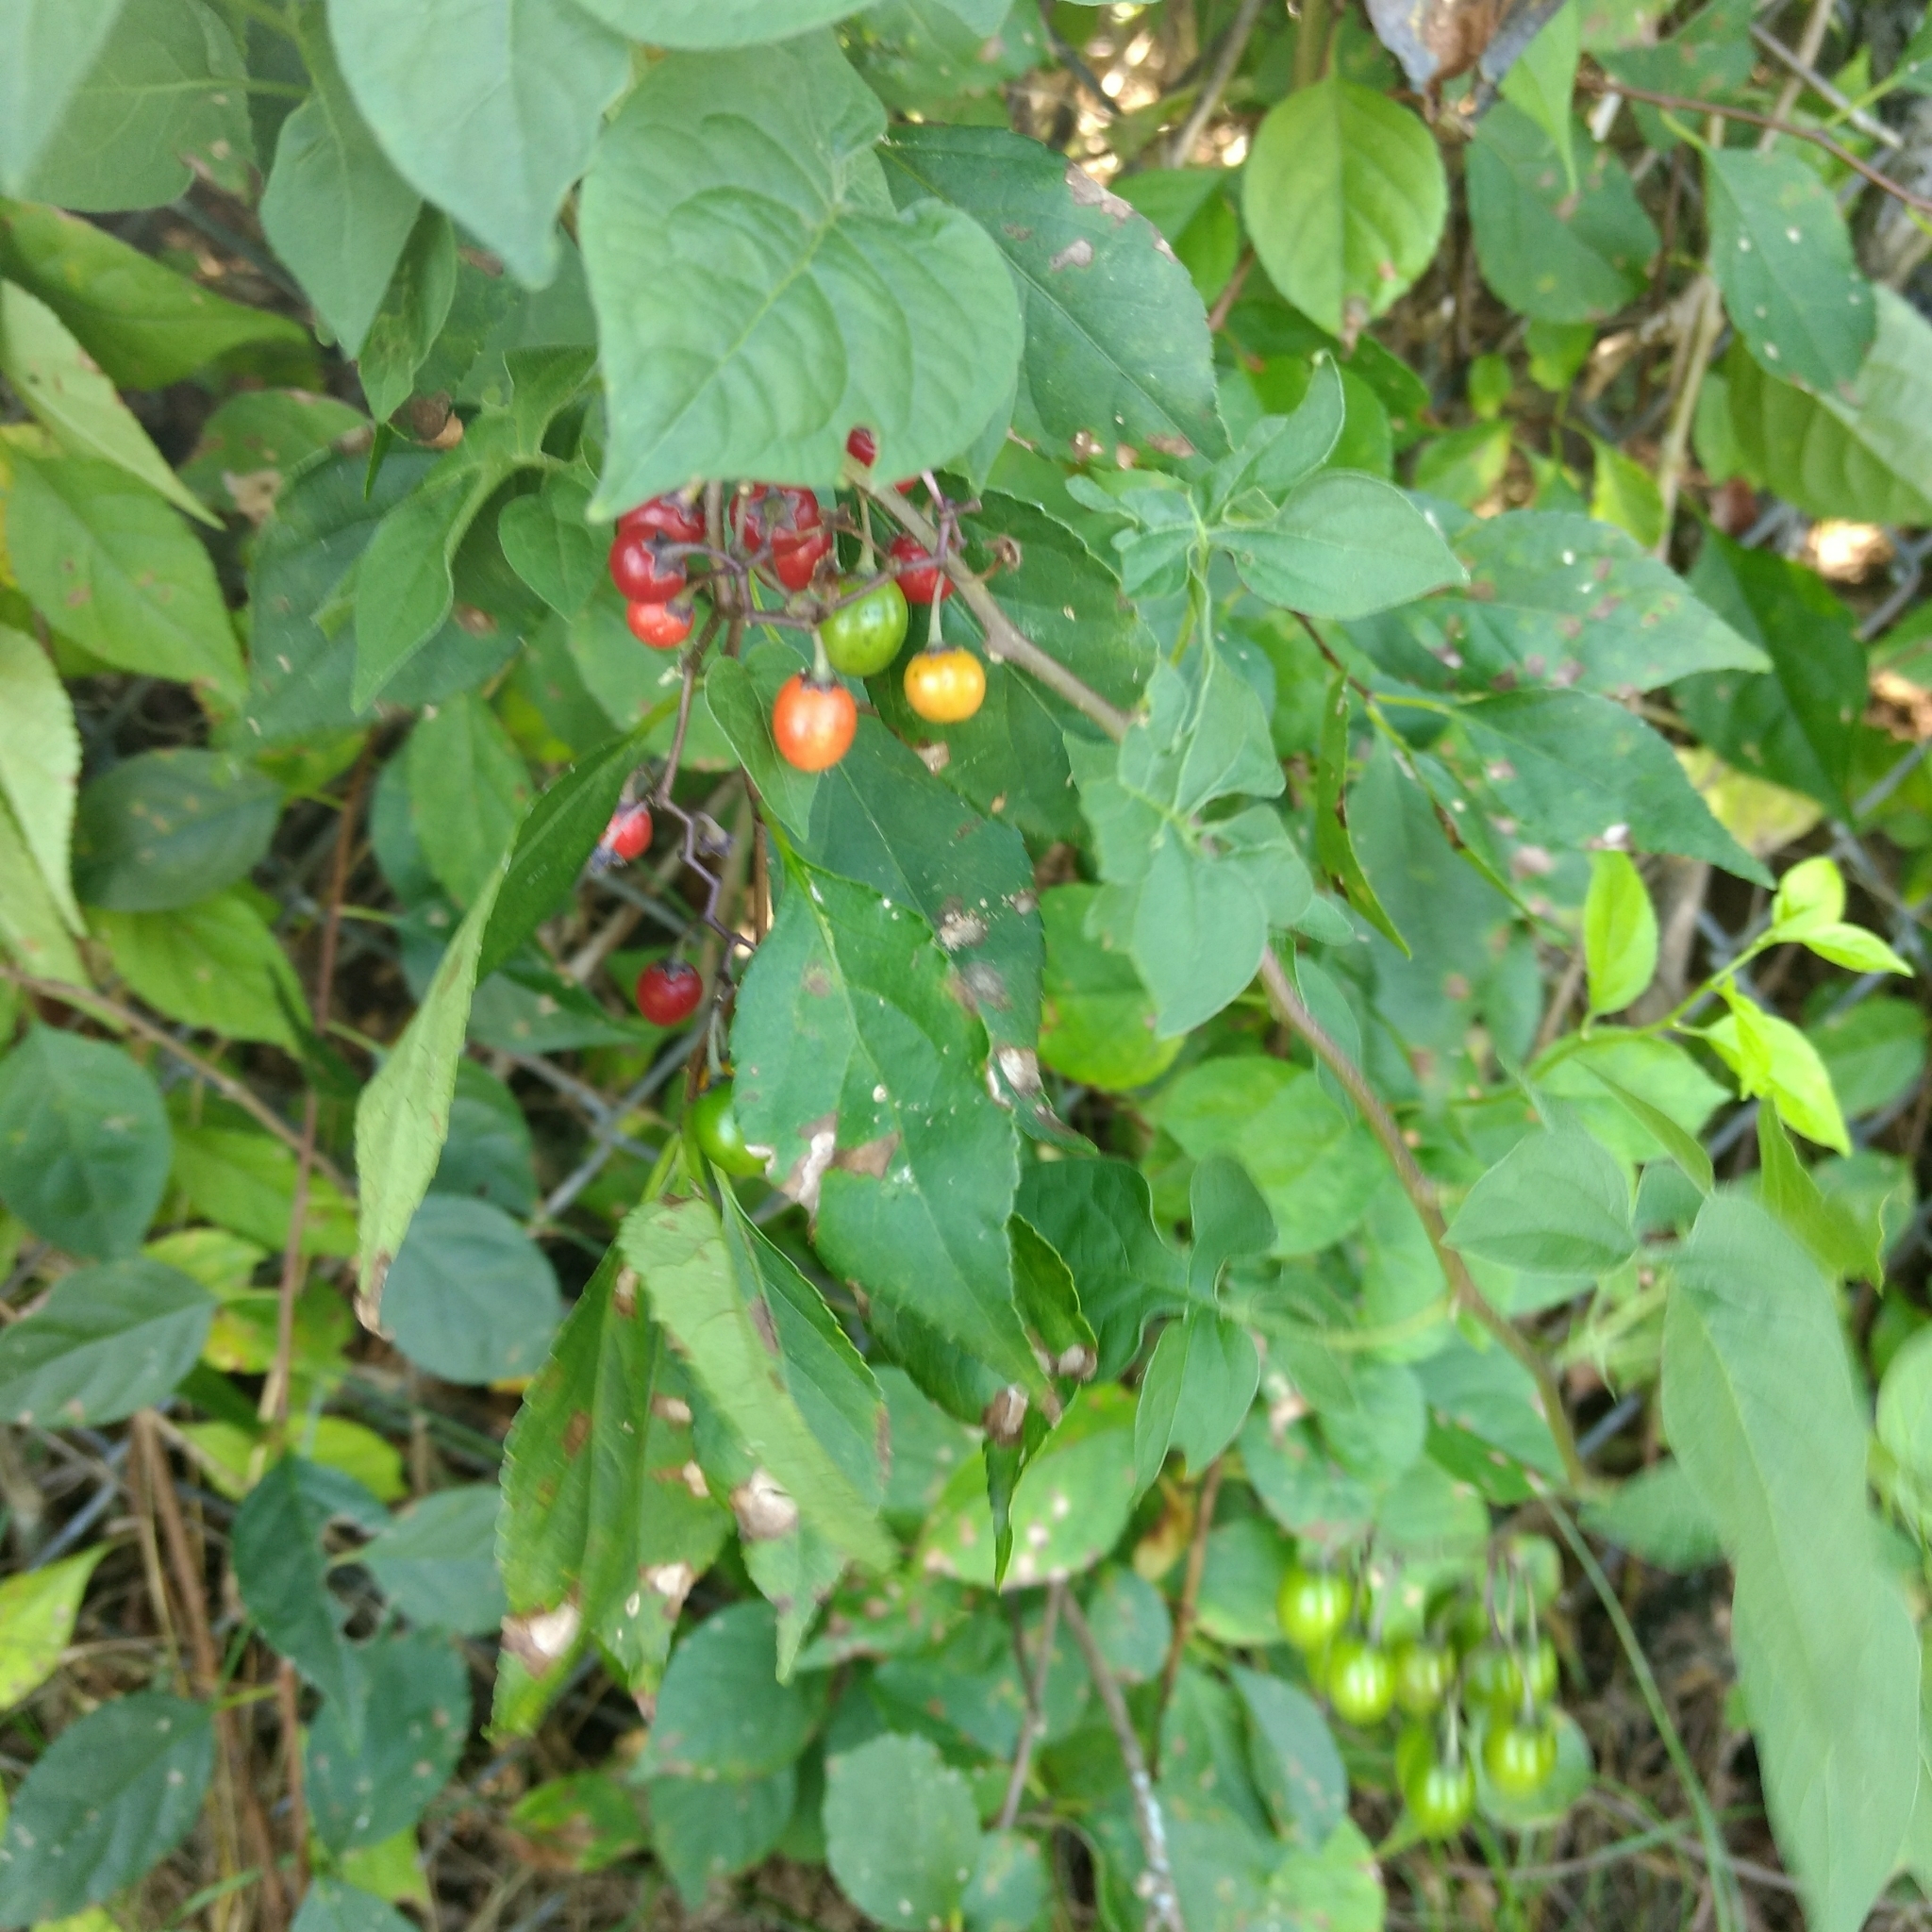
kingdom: Plantae
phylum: Tracheophyta
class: Magnoliopsida
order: Solanales
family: Solanaceae
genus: Solanum
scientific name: Solanum dulcamara
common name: Climbing nightshade
